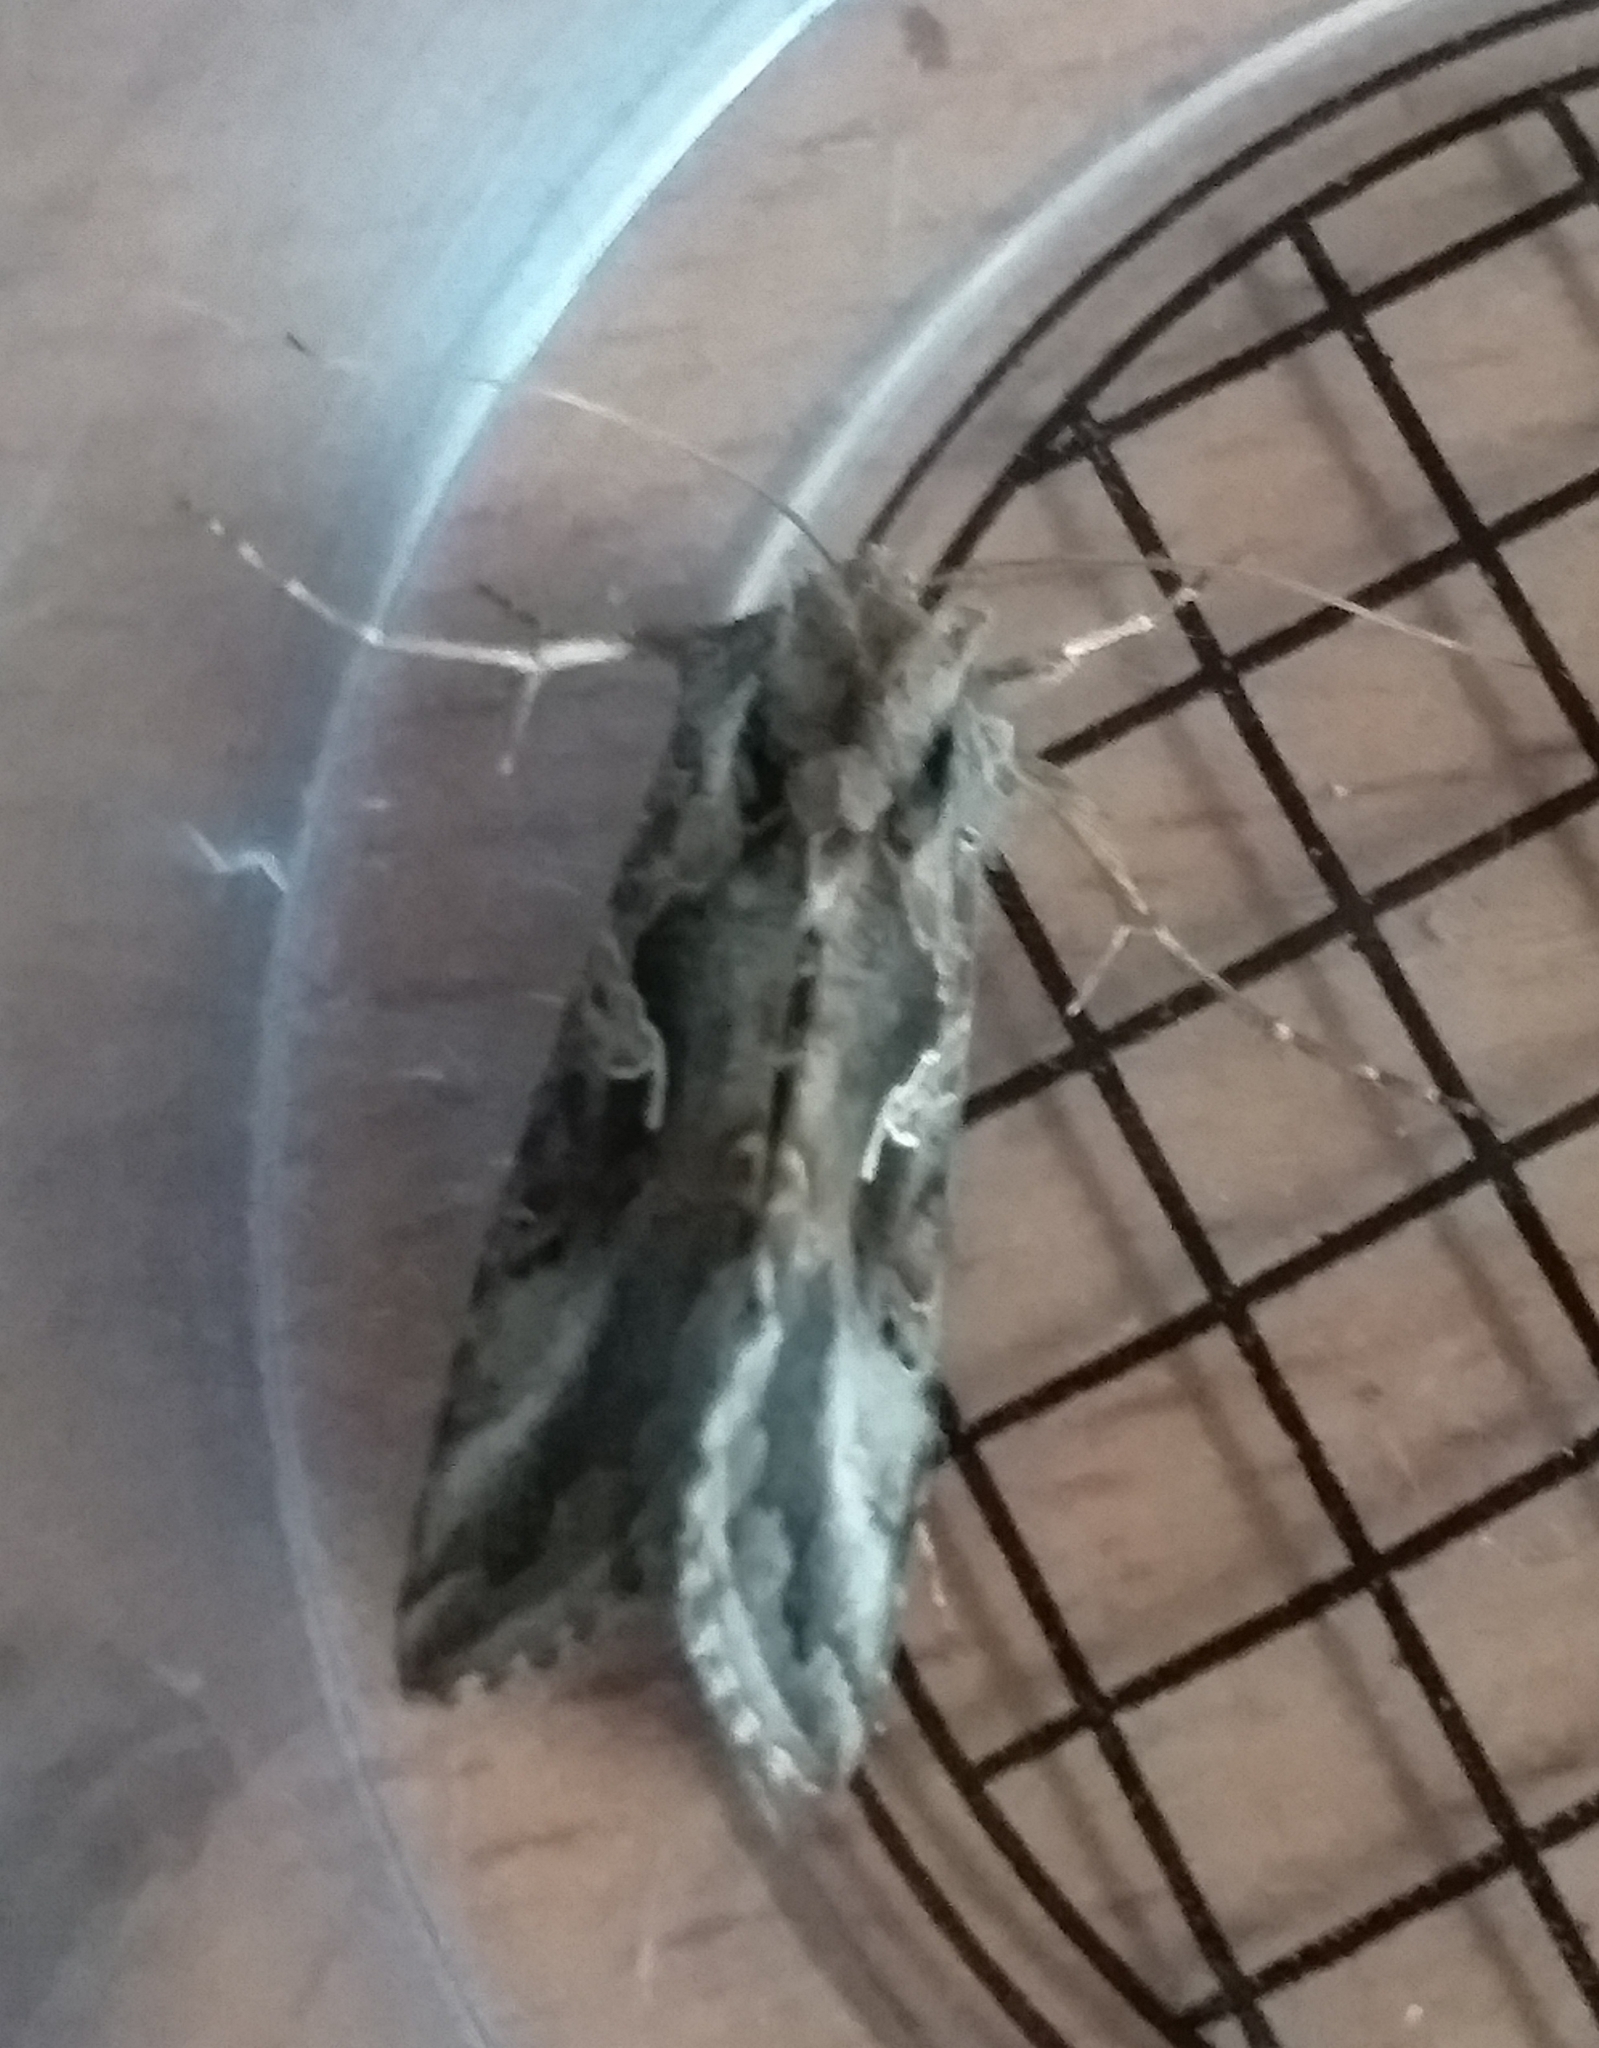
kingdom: Animalia
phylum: Arthropoda
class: Insecta
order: Lepidoptera
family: Noctuidae
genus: Autographa
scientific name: Autographa gamma
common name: Silver y
